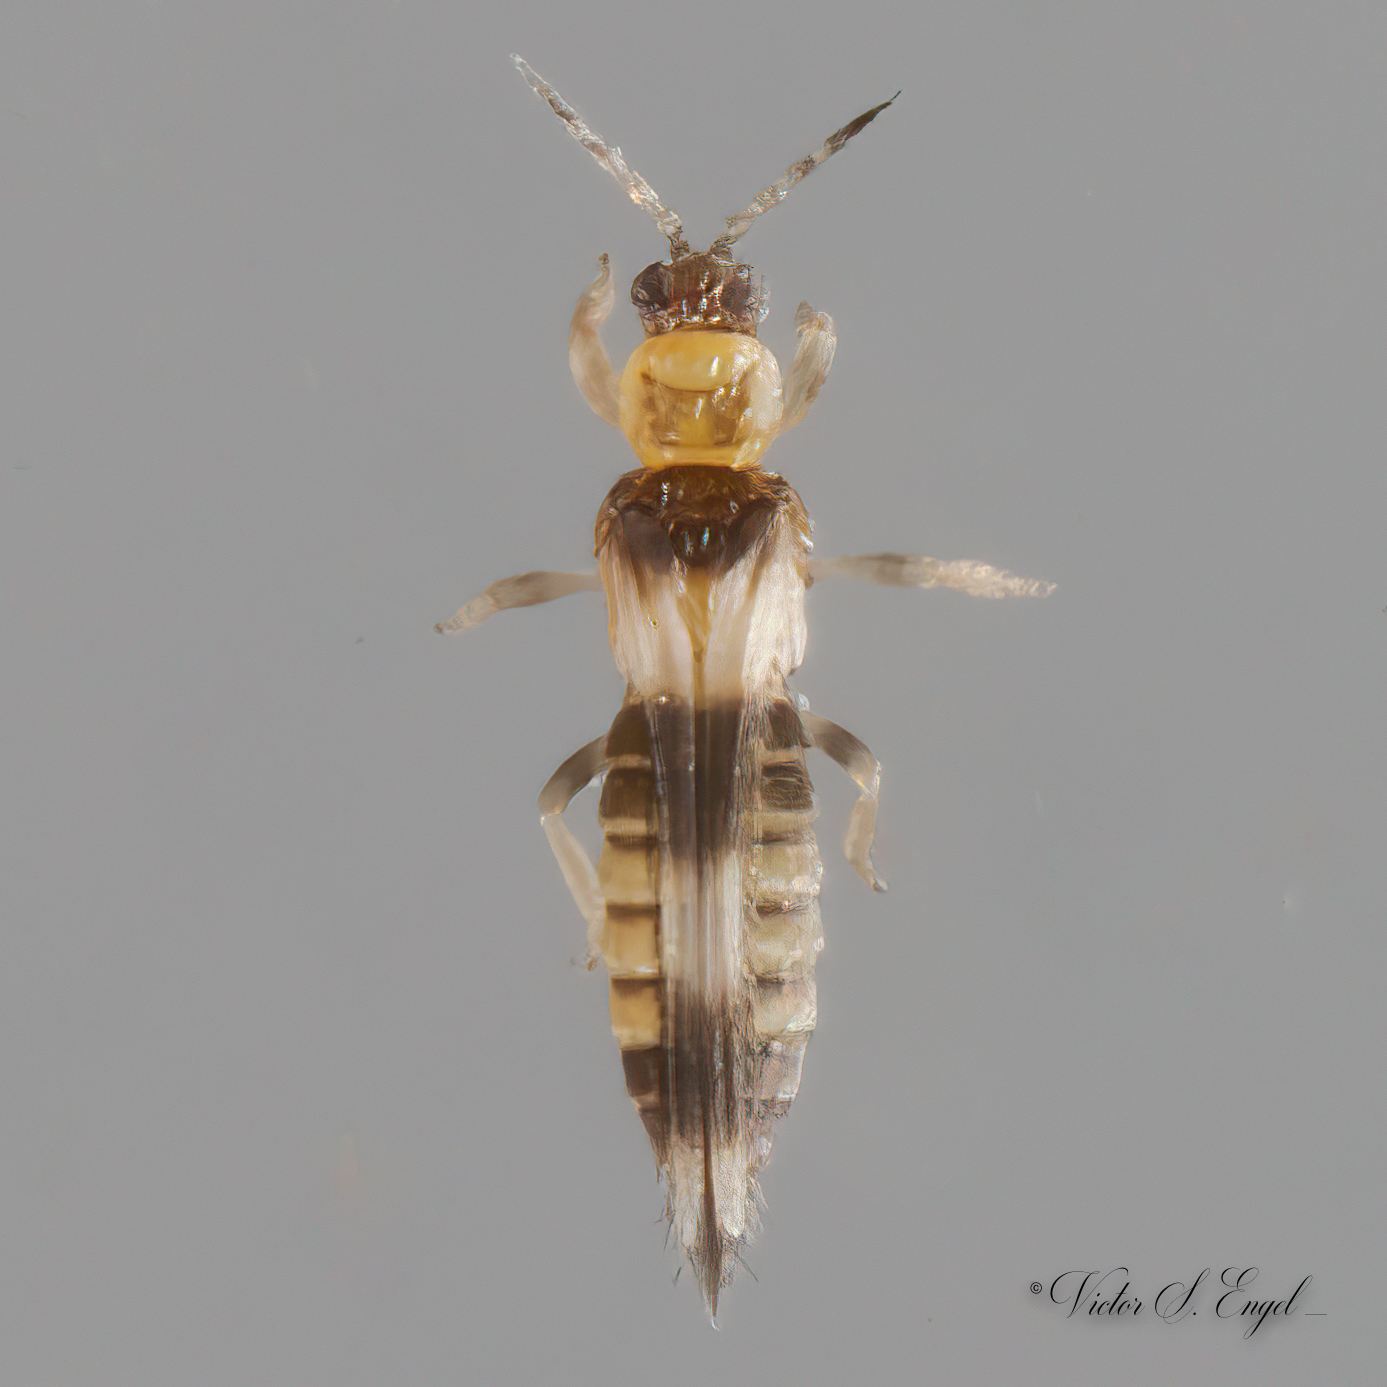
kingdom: Animalia
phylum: Arthropoda
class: Insecta
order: Thysanoptera
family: Thripidae
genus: Neohydatothrips
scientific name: Neohydatothrips variabilis
